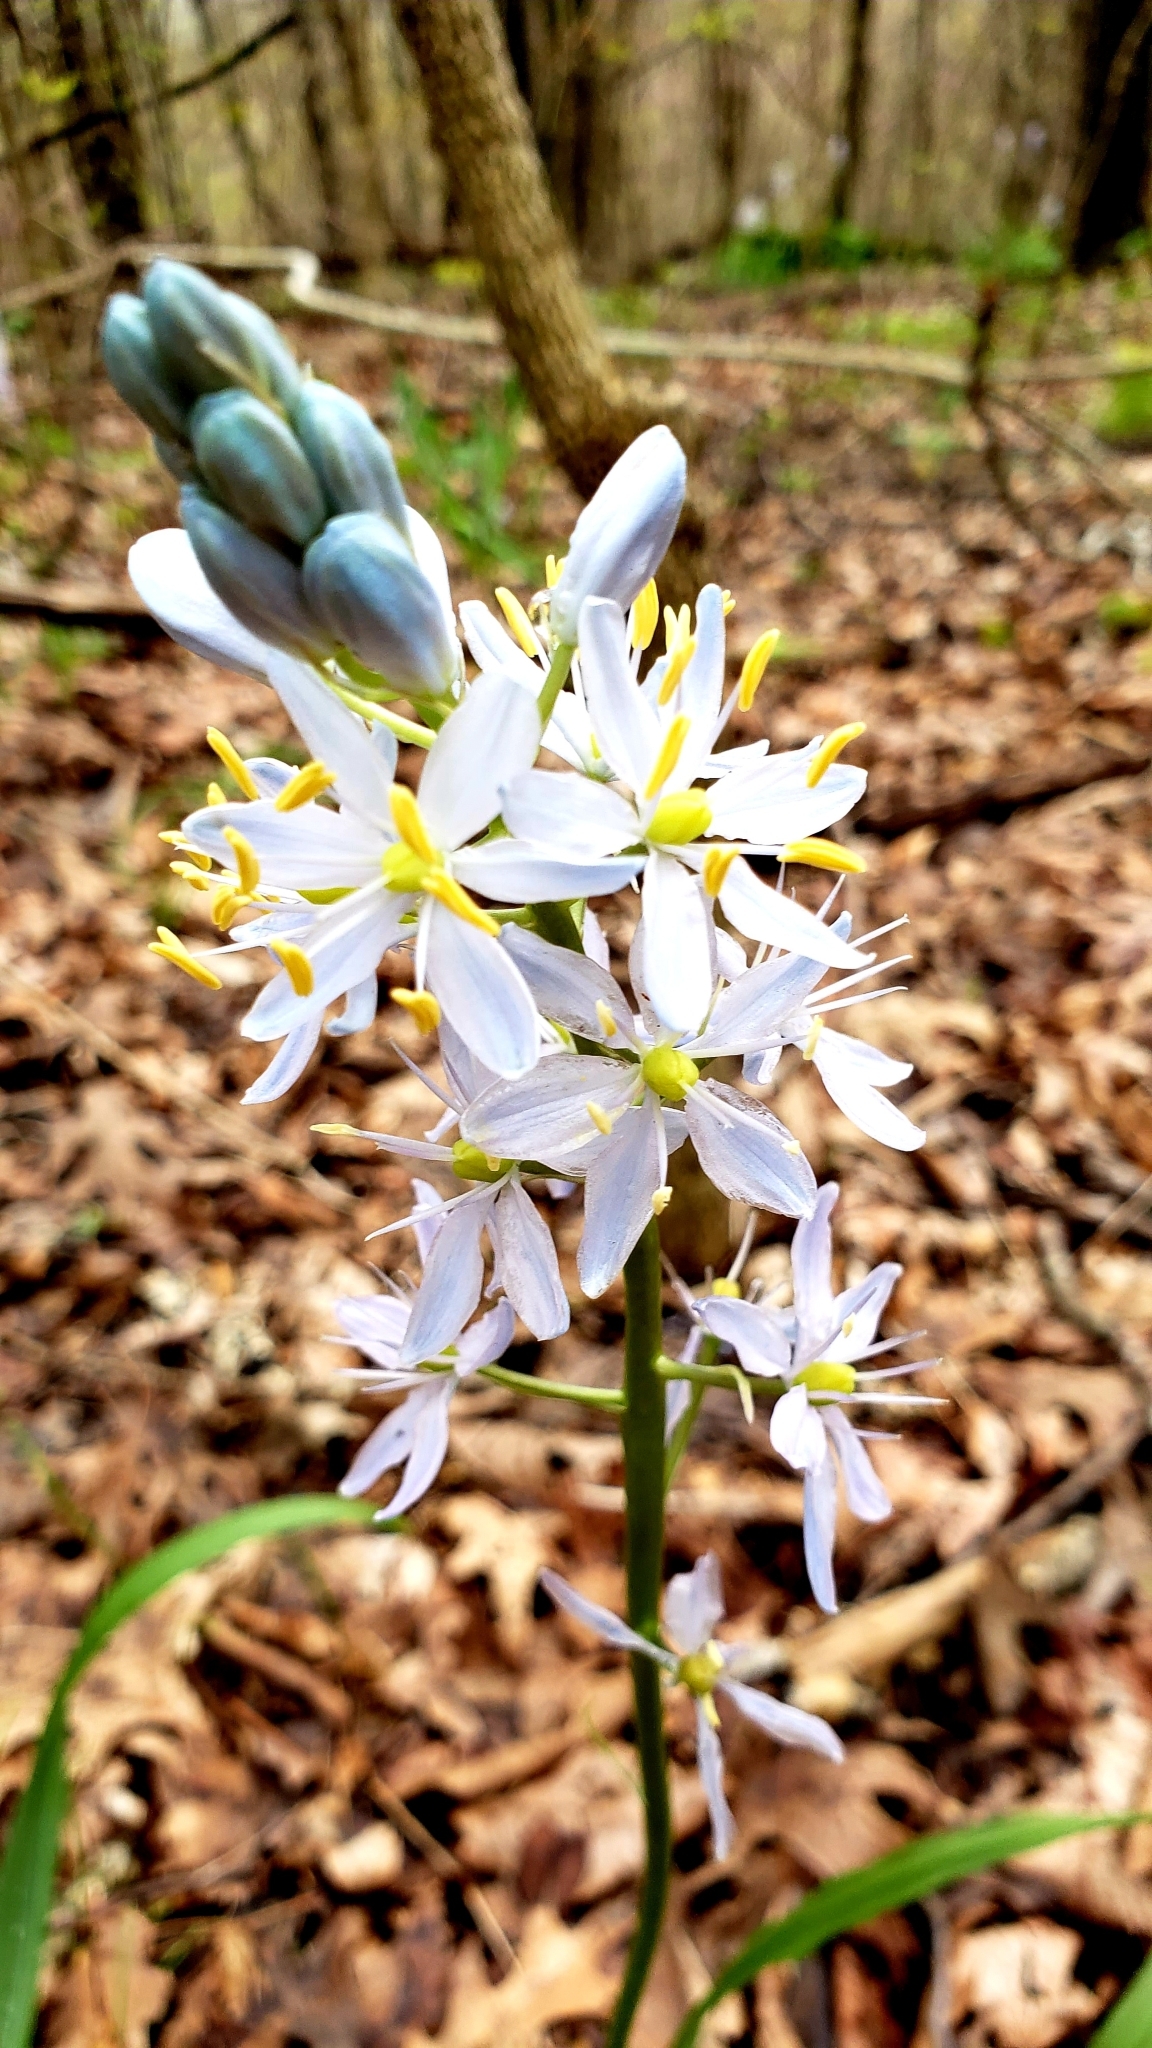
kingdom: Plantae
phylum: Tracheophyta
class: Liliopsida
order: Asparagales
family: Asparagaceae
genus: Camassia
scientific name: Camassia scilloides
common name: Wild hyacinth
